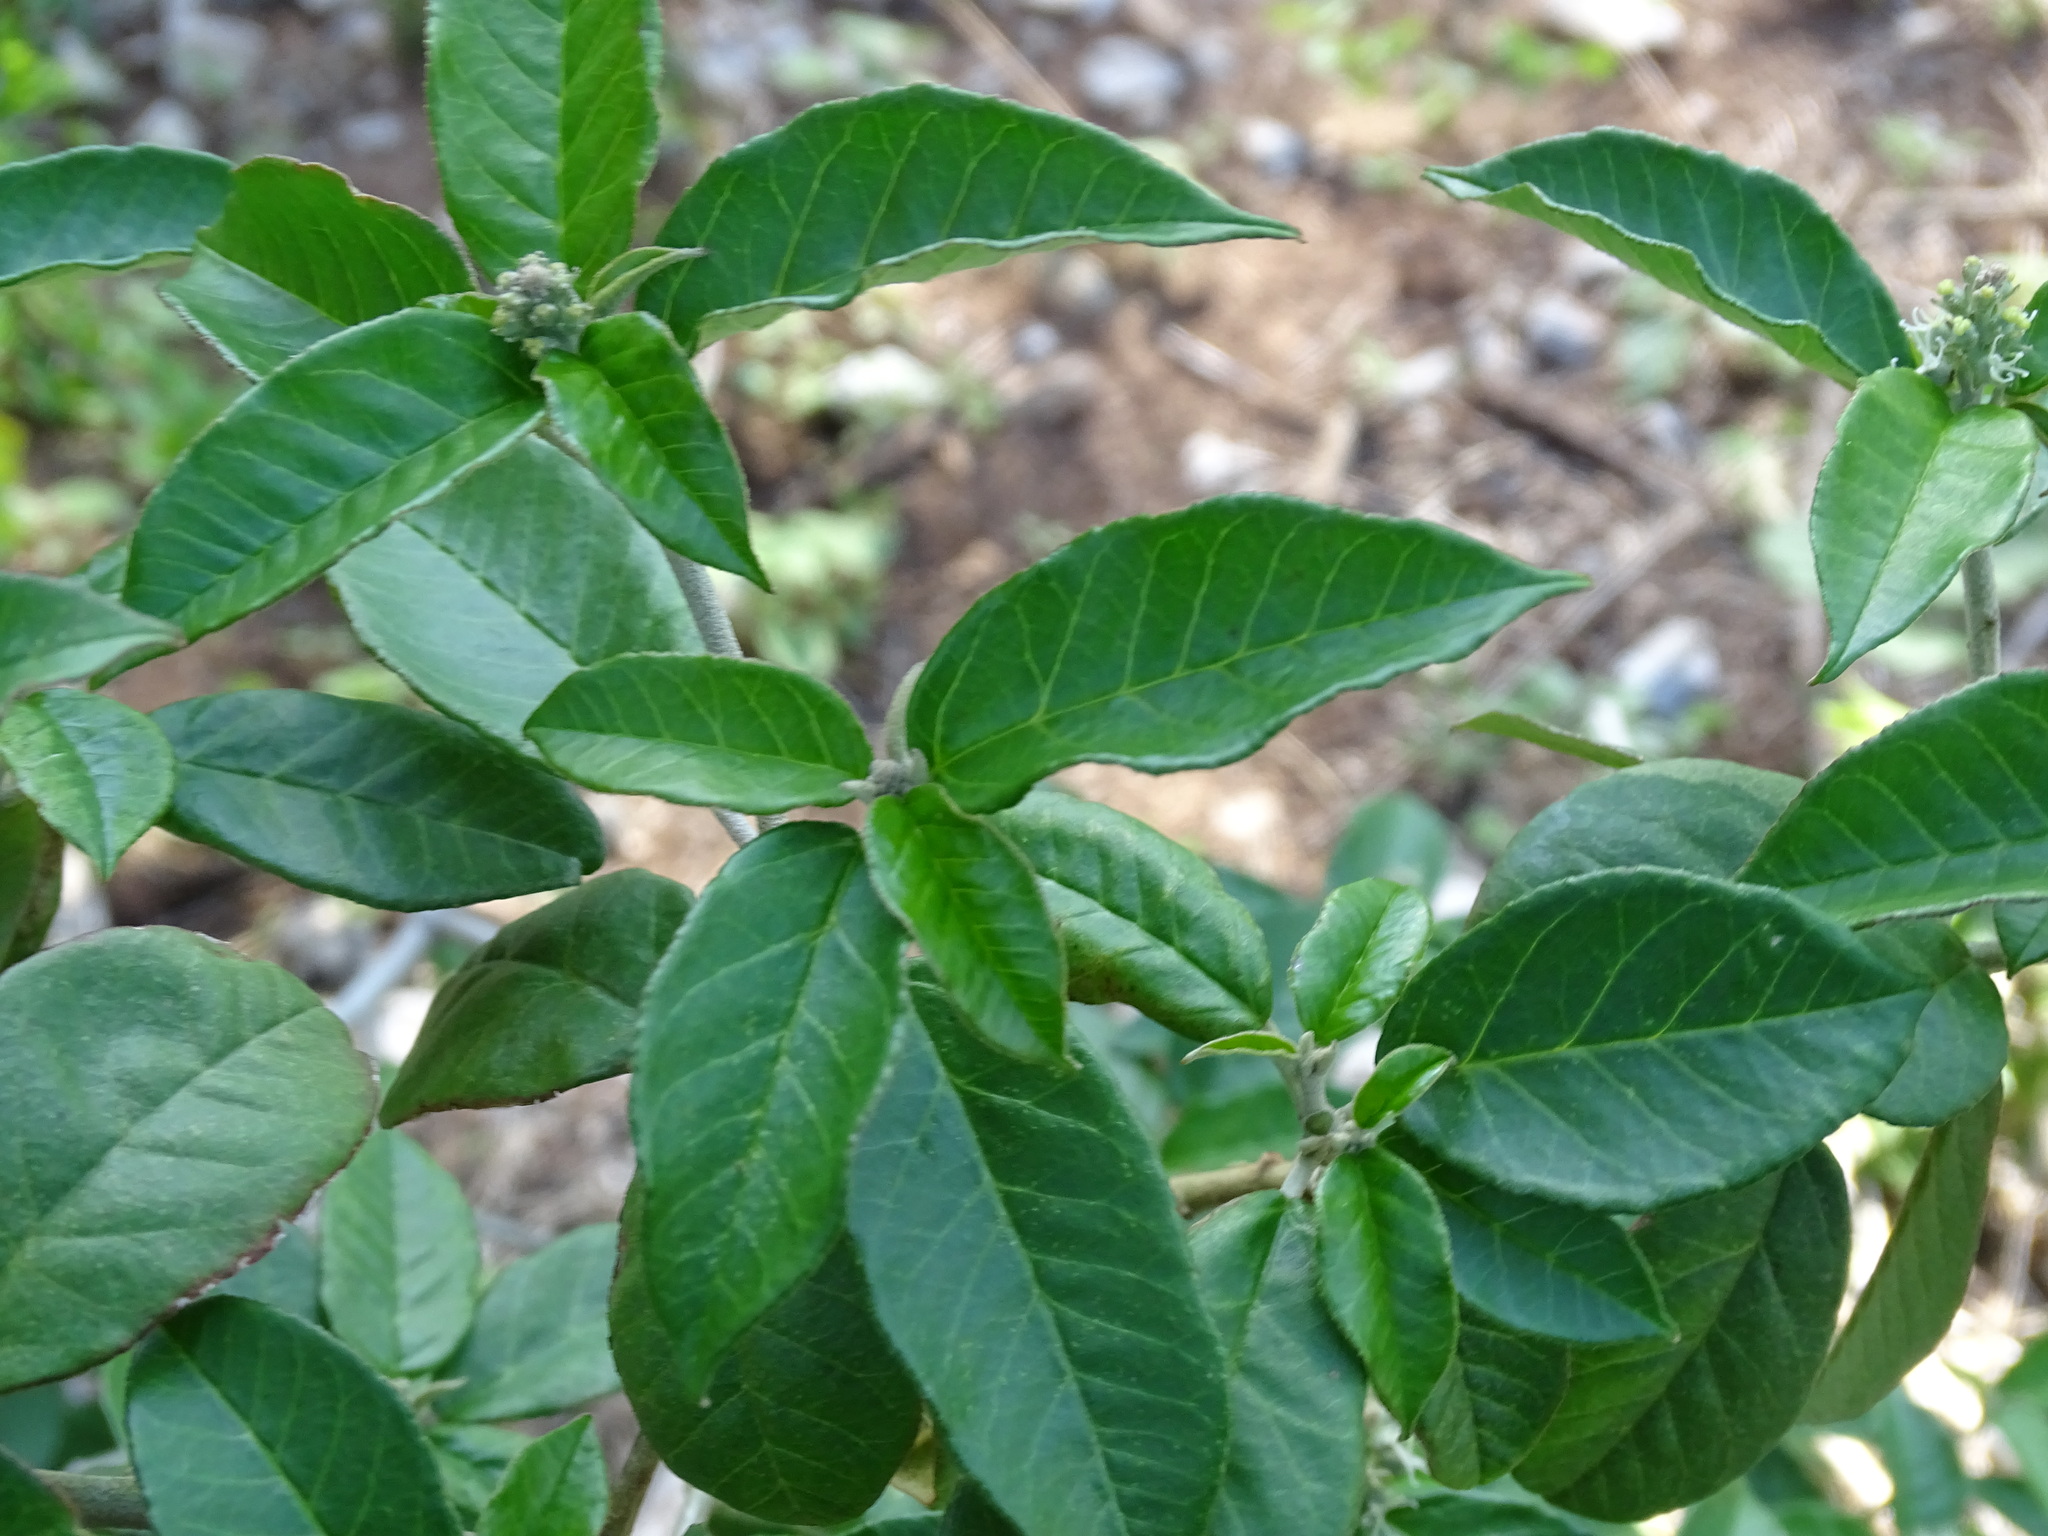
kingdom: Plantae
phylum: Tracheophyta
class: Magnoliopsida
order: Malpighiales
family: Euphorbiaceae
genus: Croton
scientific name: Croton cortesianus
